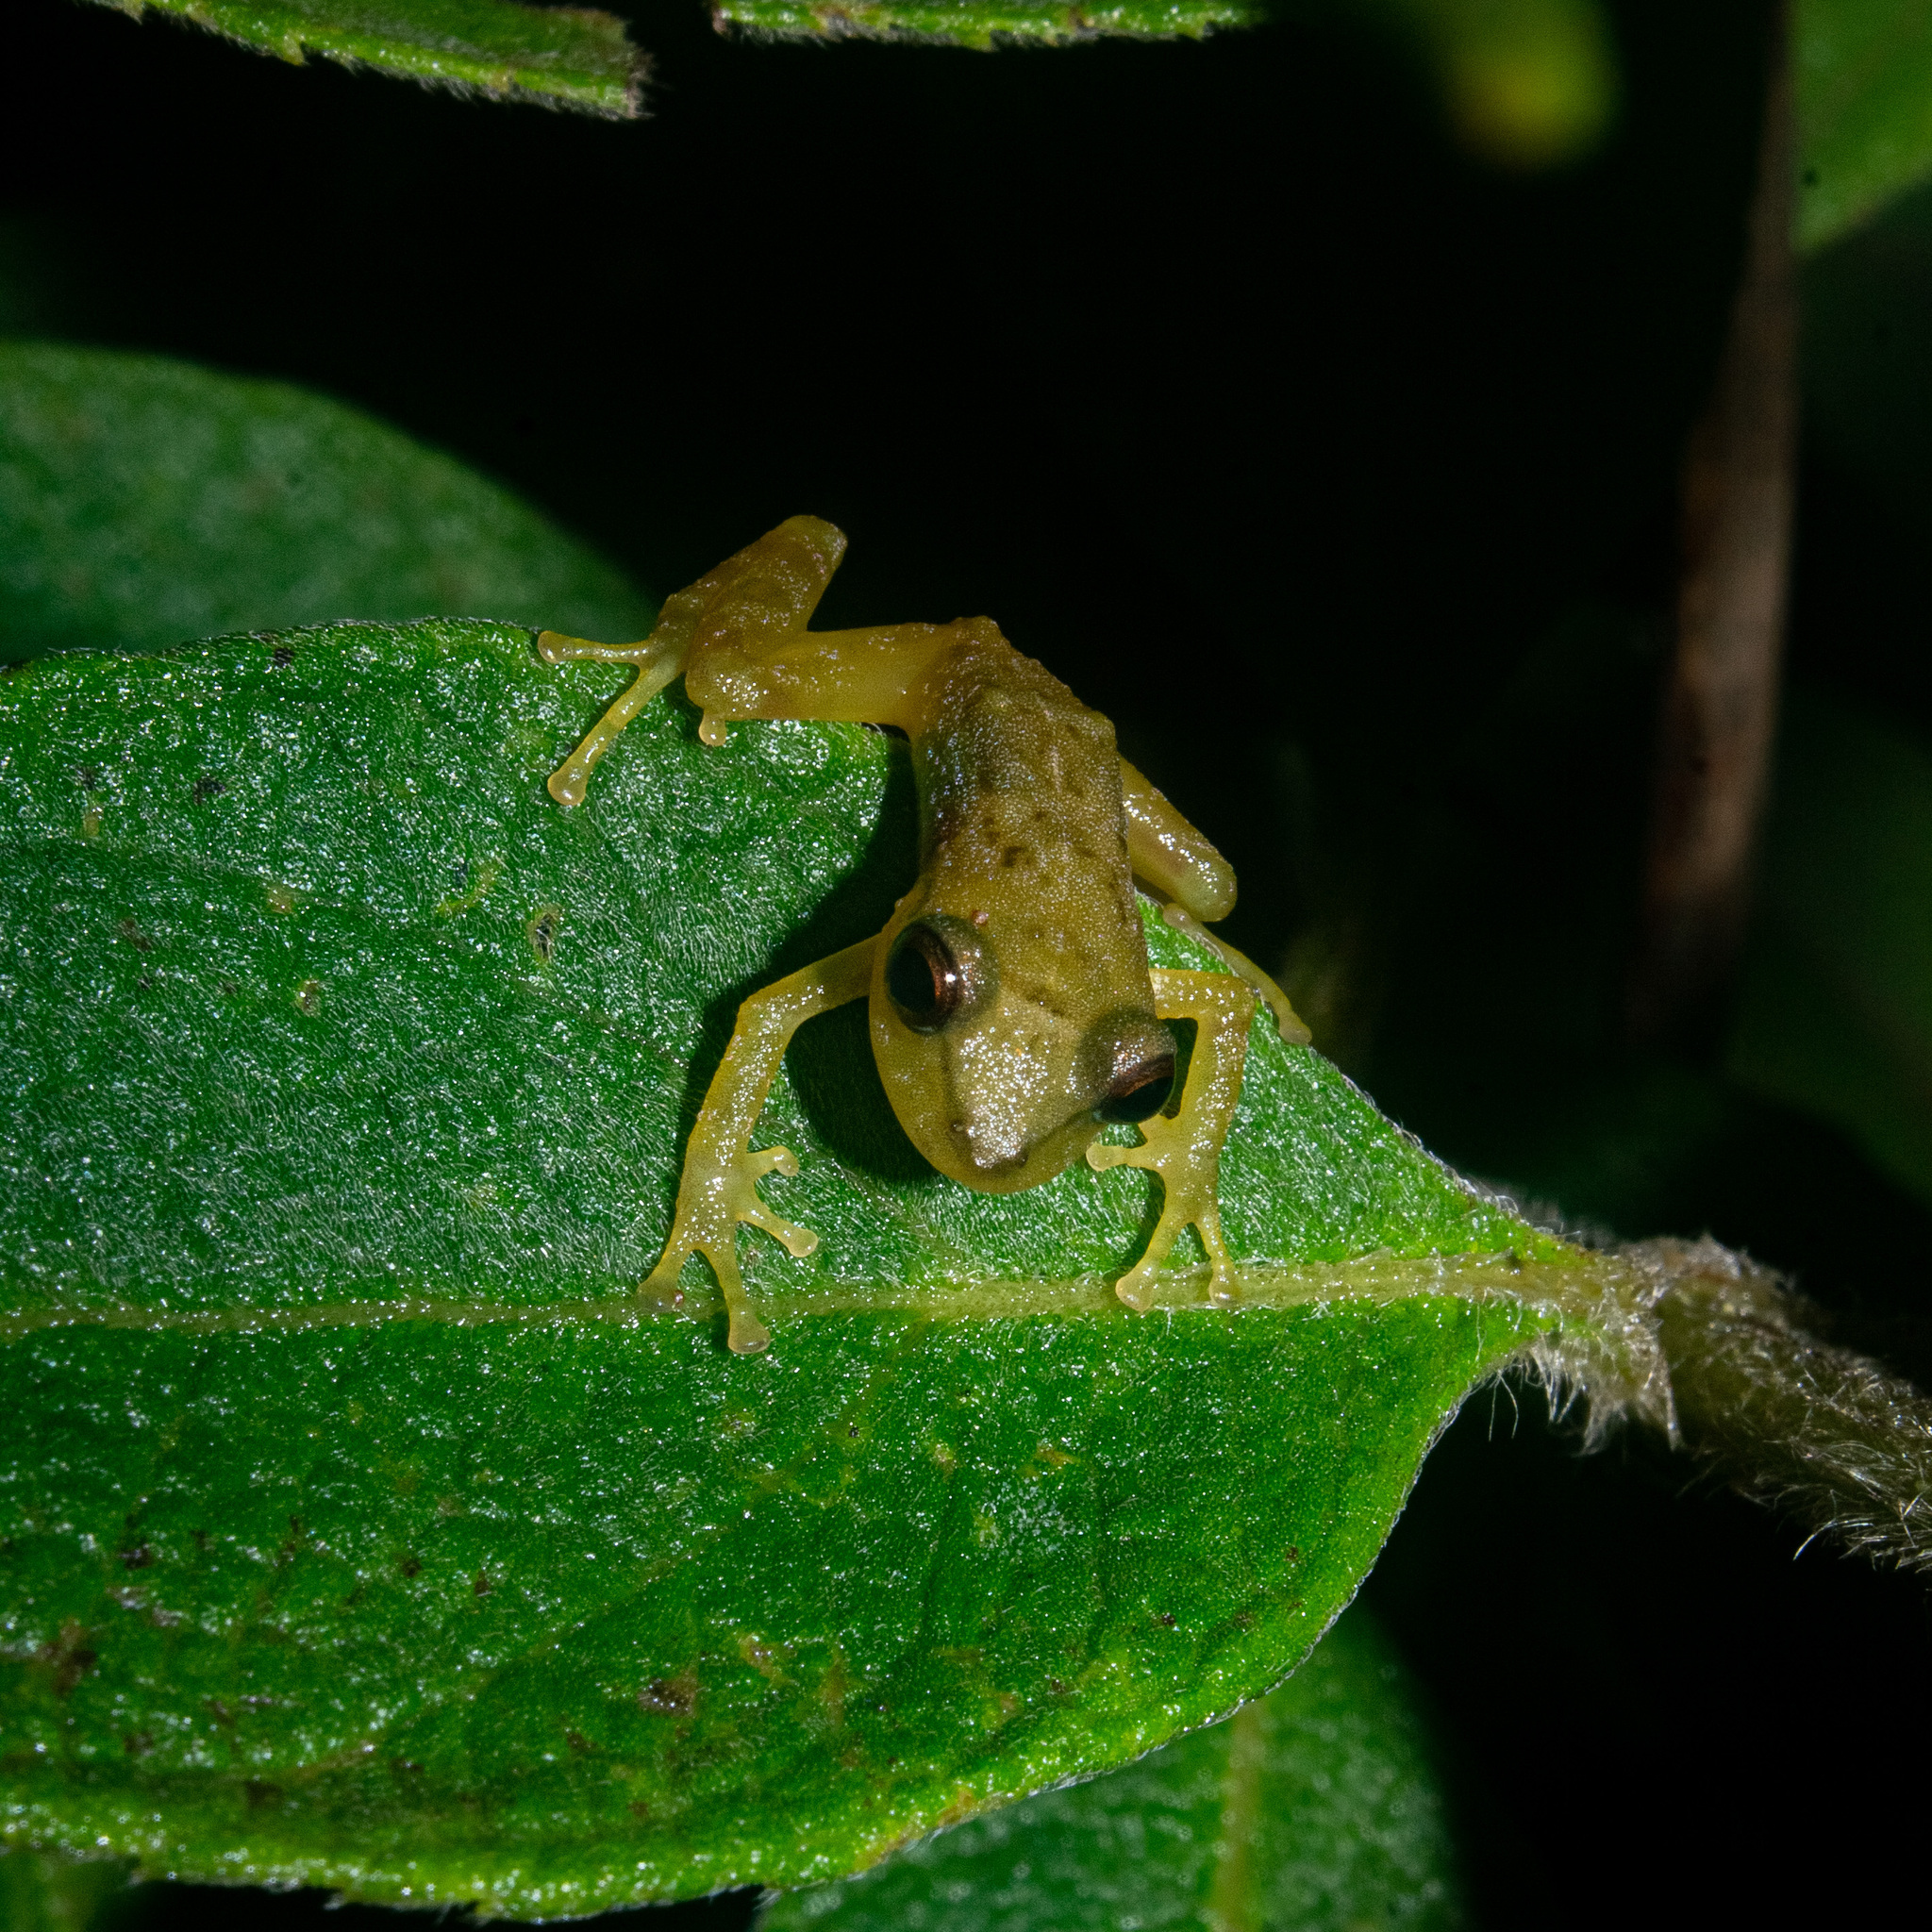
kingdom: Animalia
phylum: Chordata
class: Amphibia
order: Anura
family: Craugastoridae
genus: Tachiramantis
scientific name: Tachiramantis
